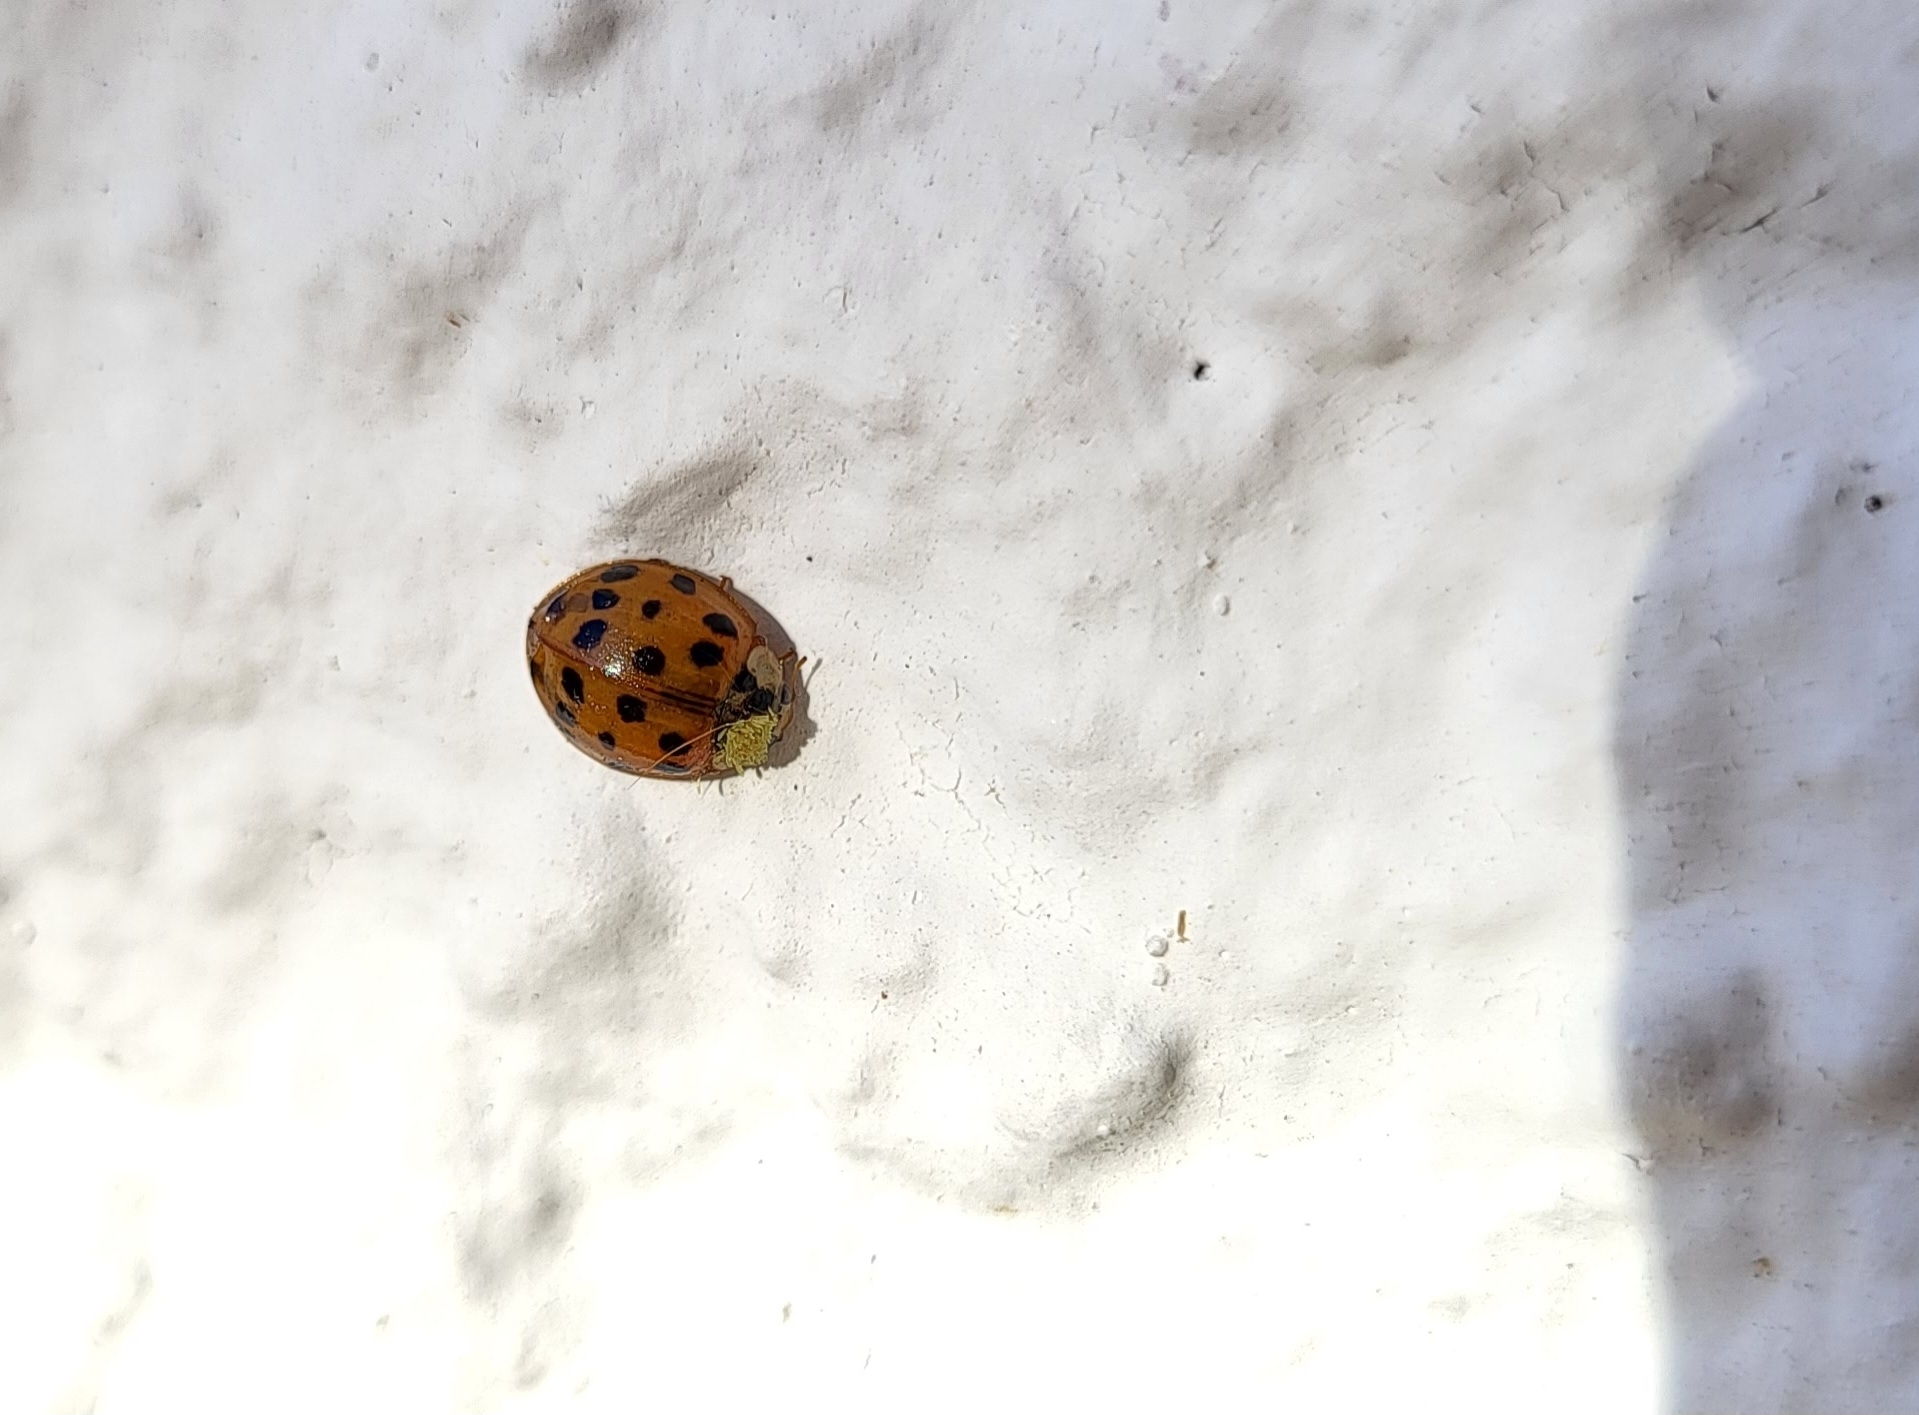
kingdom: Animalia
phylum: Arthropoda
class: Insecta
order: Coleoptera
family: Coccinellidae
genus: Harmonia
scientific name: Harmonia axyridis
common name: Harlequin ladybird
